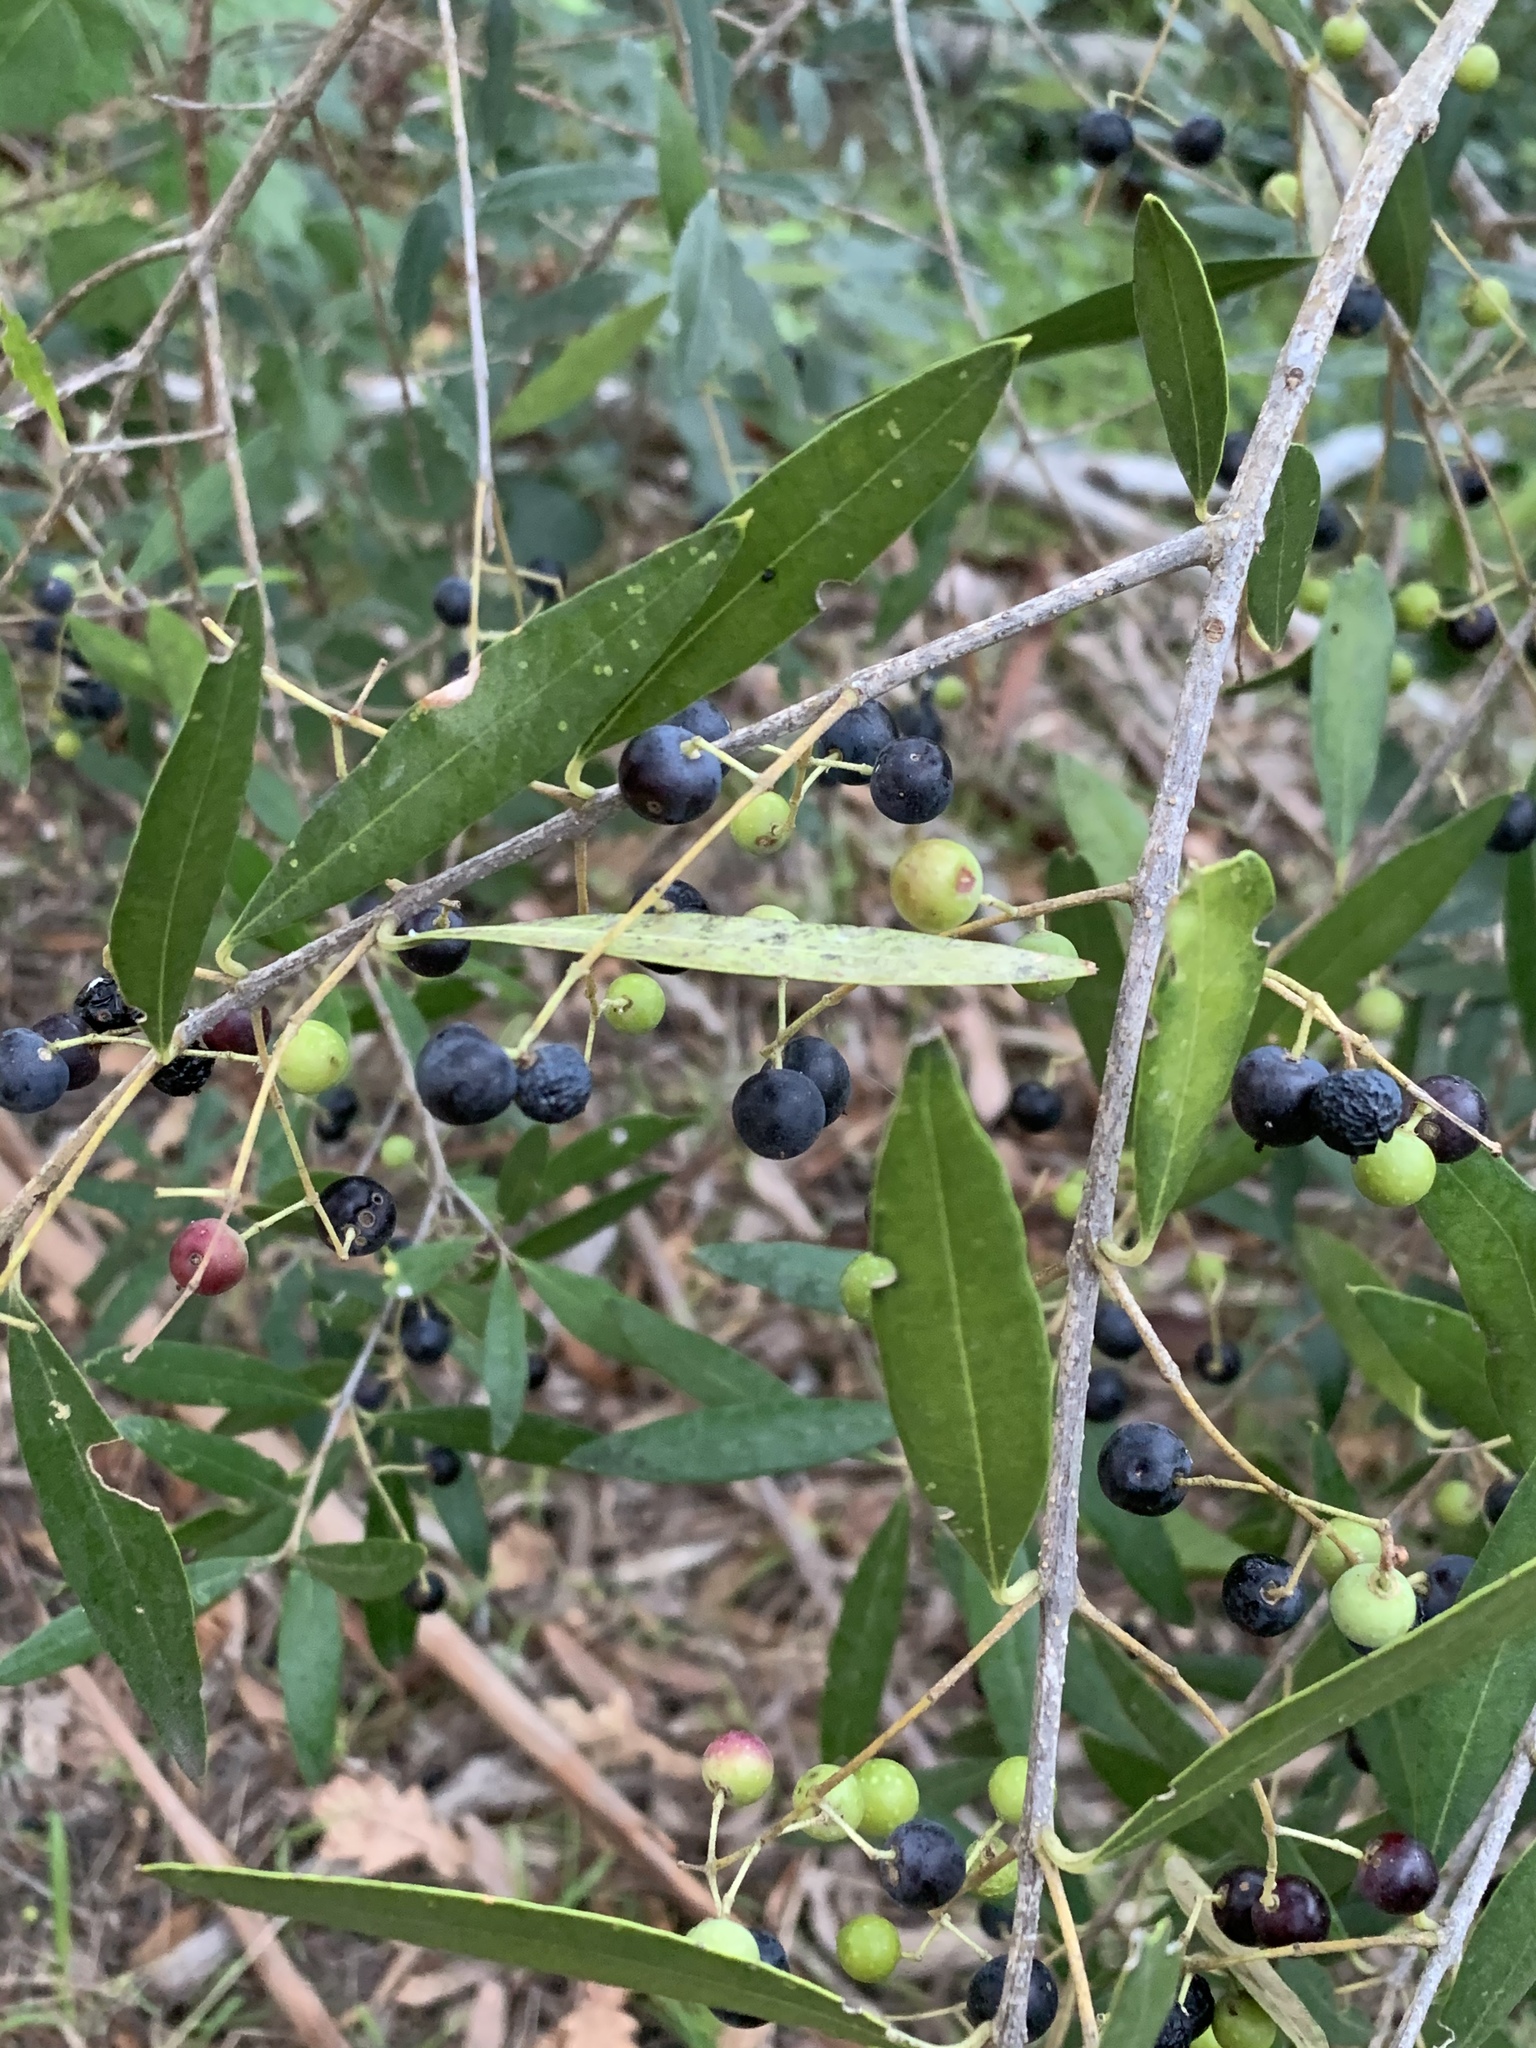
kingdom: Plantae
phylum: Tracheophyta
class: Magnoliopsida
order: Lamiales
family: Oleaceae
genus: Olea
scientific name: Olea europaea
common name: Olive
